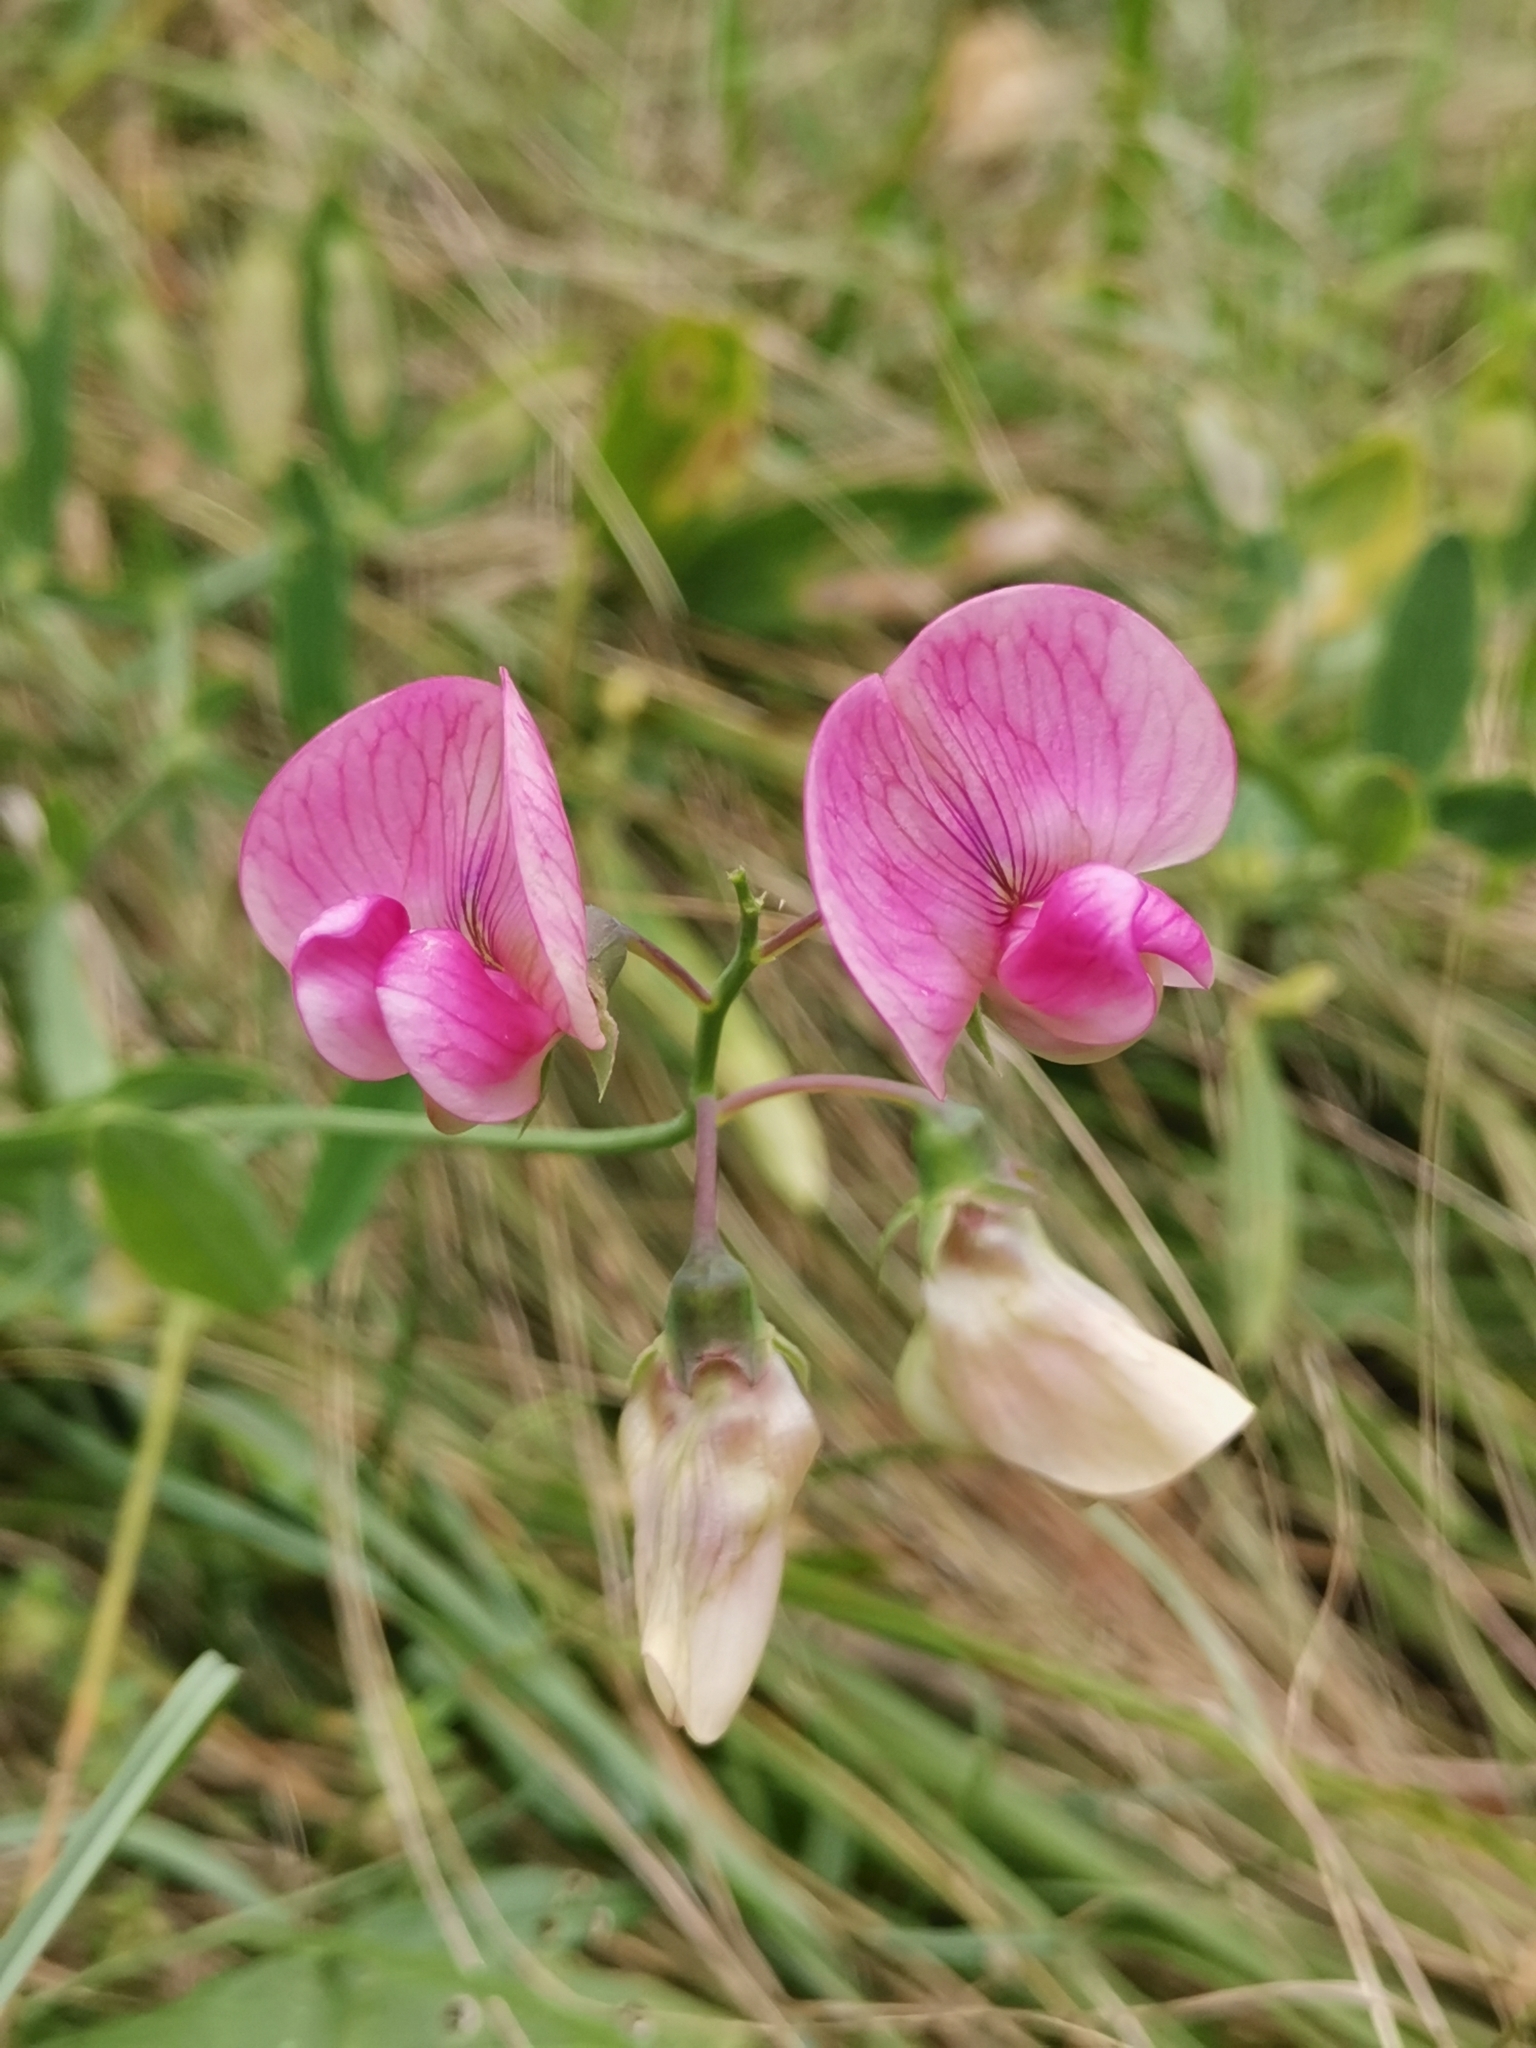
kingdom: Plantae
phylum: Tracheophyta
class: Magnoliopsida
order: Fabales
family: Fabaceae
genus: Lathyrus
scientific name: Lathyrus latifolius
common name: Perennial pea
